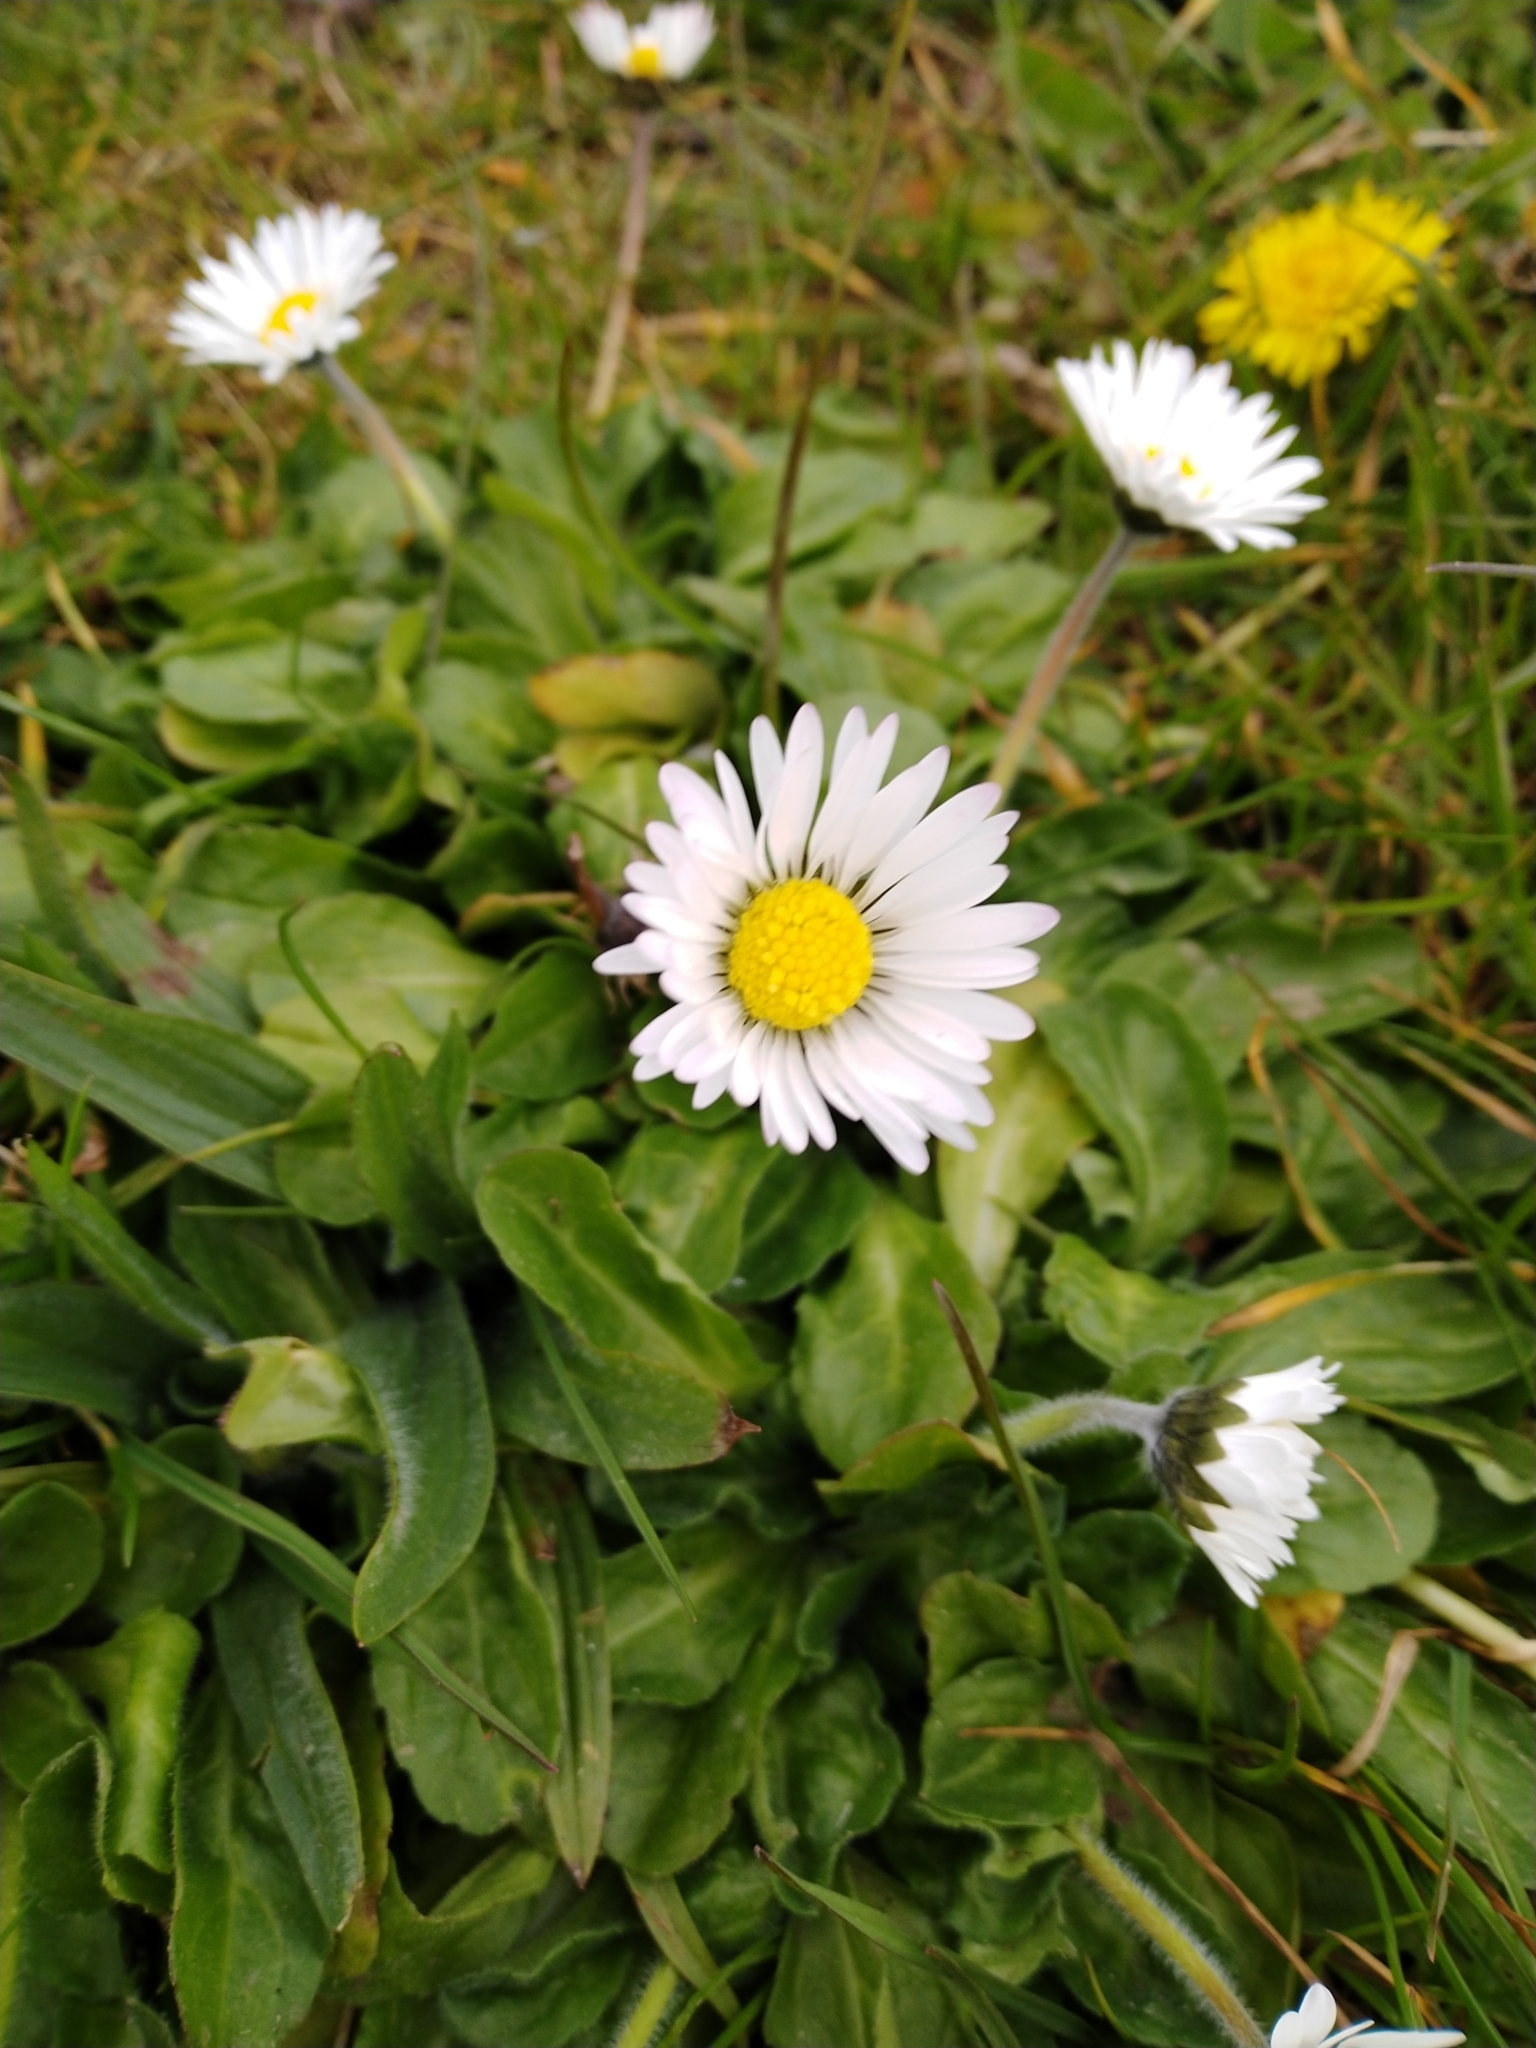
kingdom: Plantae
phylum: Tracheophyta
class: Magnoliopsida
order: Asterales
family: Asteraceae
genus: Bellis
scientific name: Bellis perennis
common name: Lawndaisy
